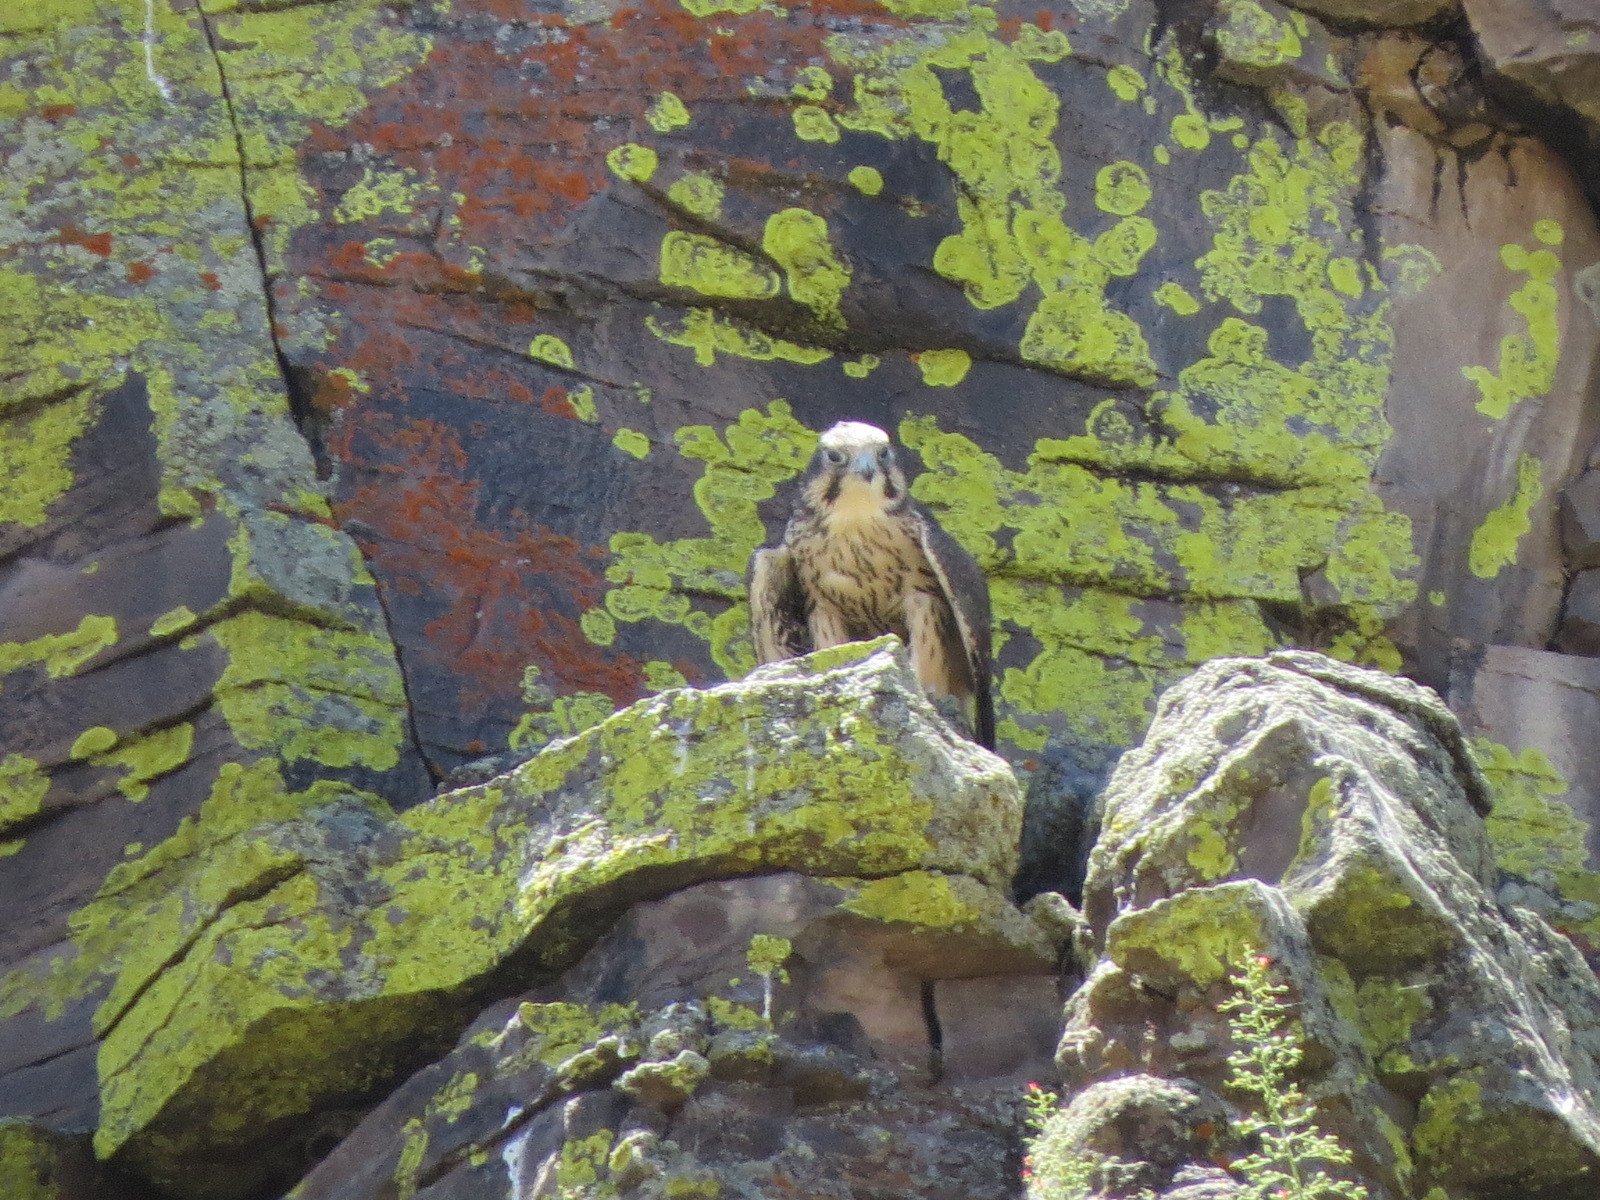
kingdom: Animalia
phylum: Chordata
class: Aves
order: Falconiformes
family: Falconidae
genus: Falco
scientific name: Falco mexicanus
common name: Prairie falcon
